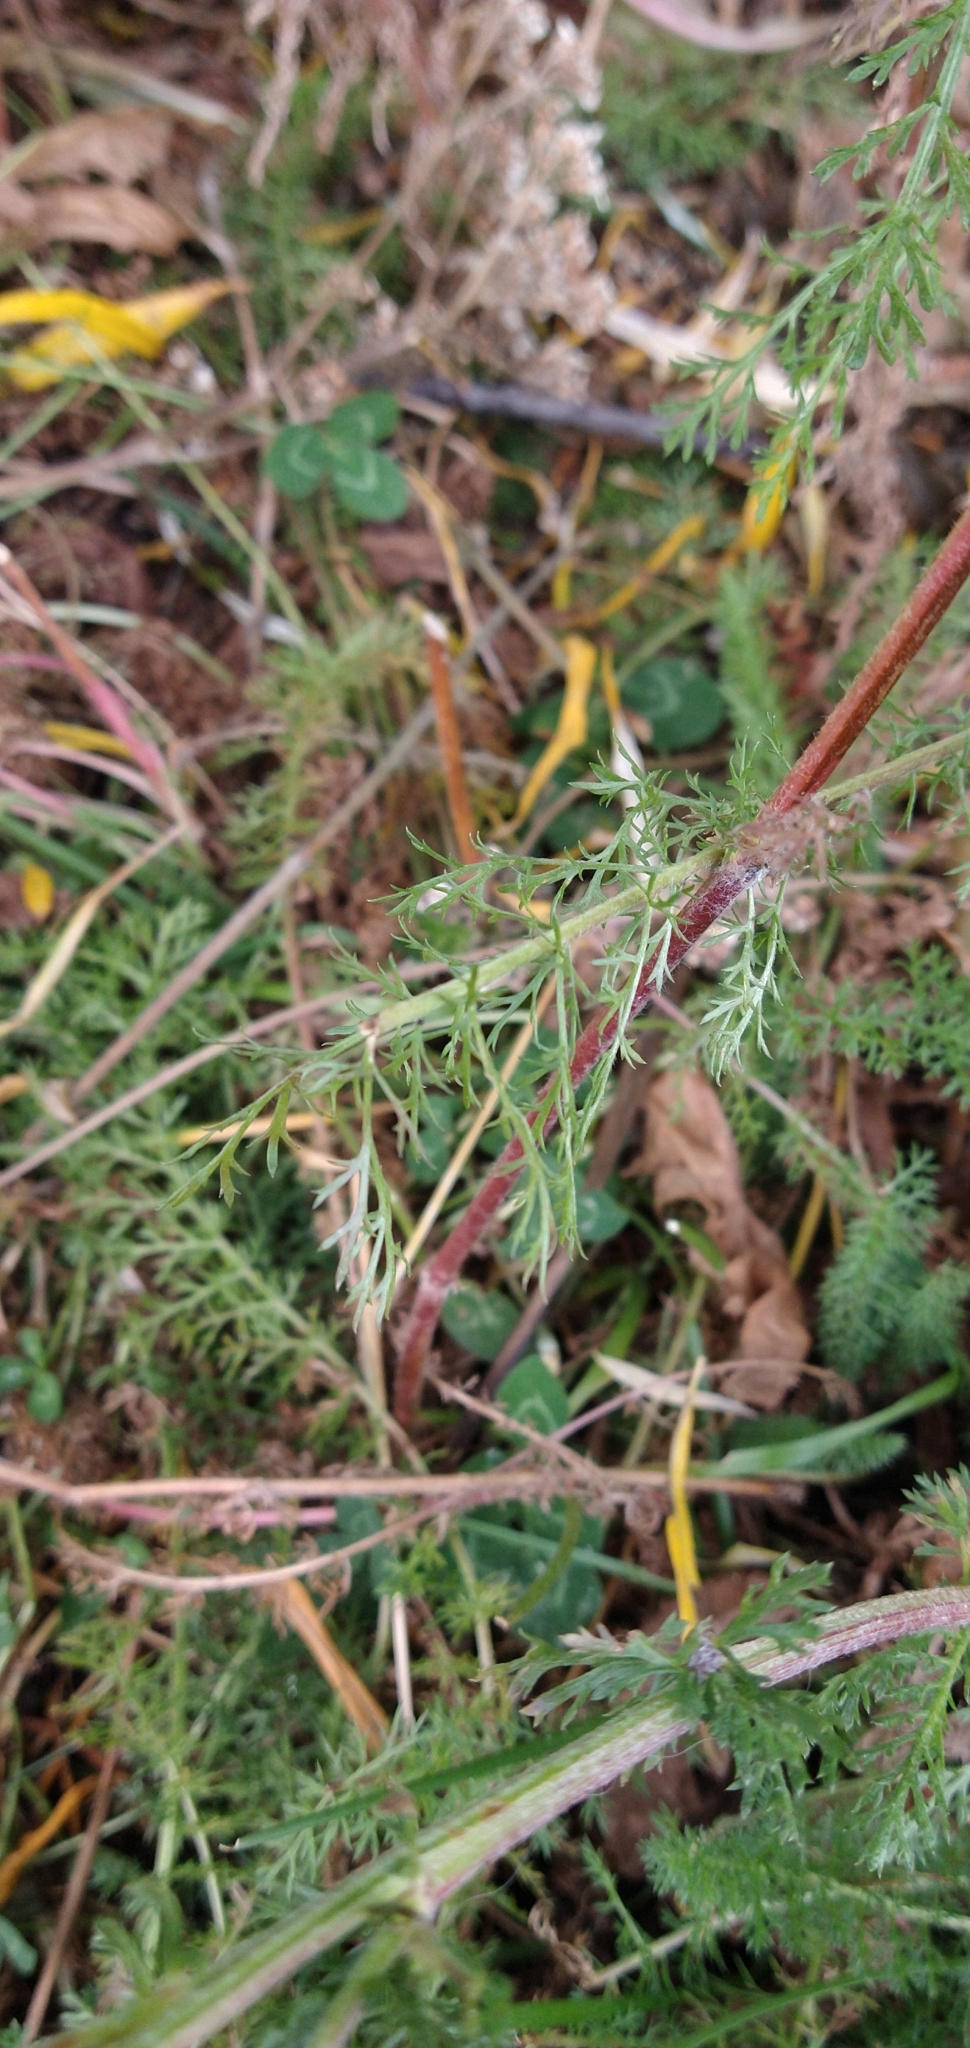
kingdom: Plantae
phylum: Tracheophyta
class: Magnoliopsida
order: Asterales
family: Asteraceae
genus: Achillea
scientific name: Achillea millefolium
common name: Yarrow
